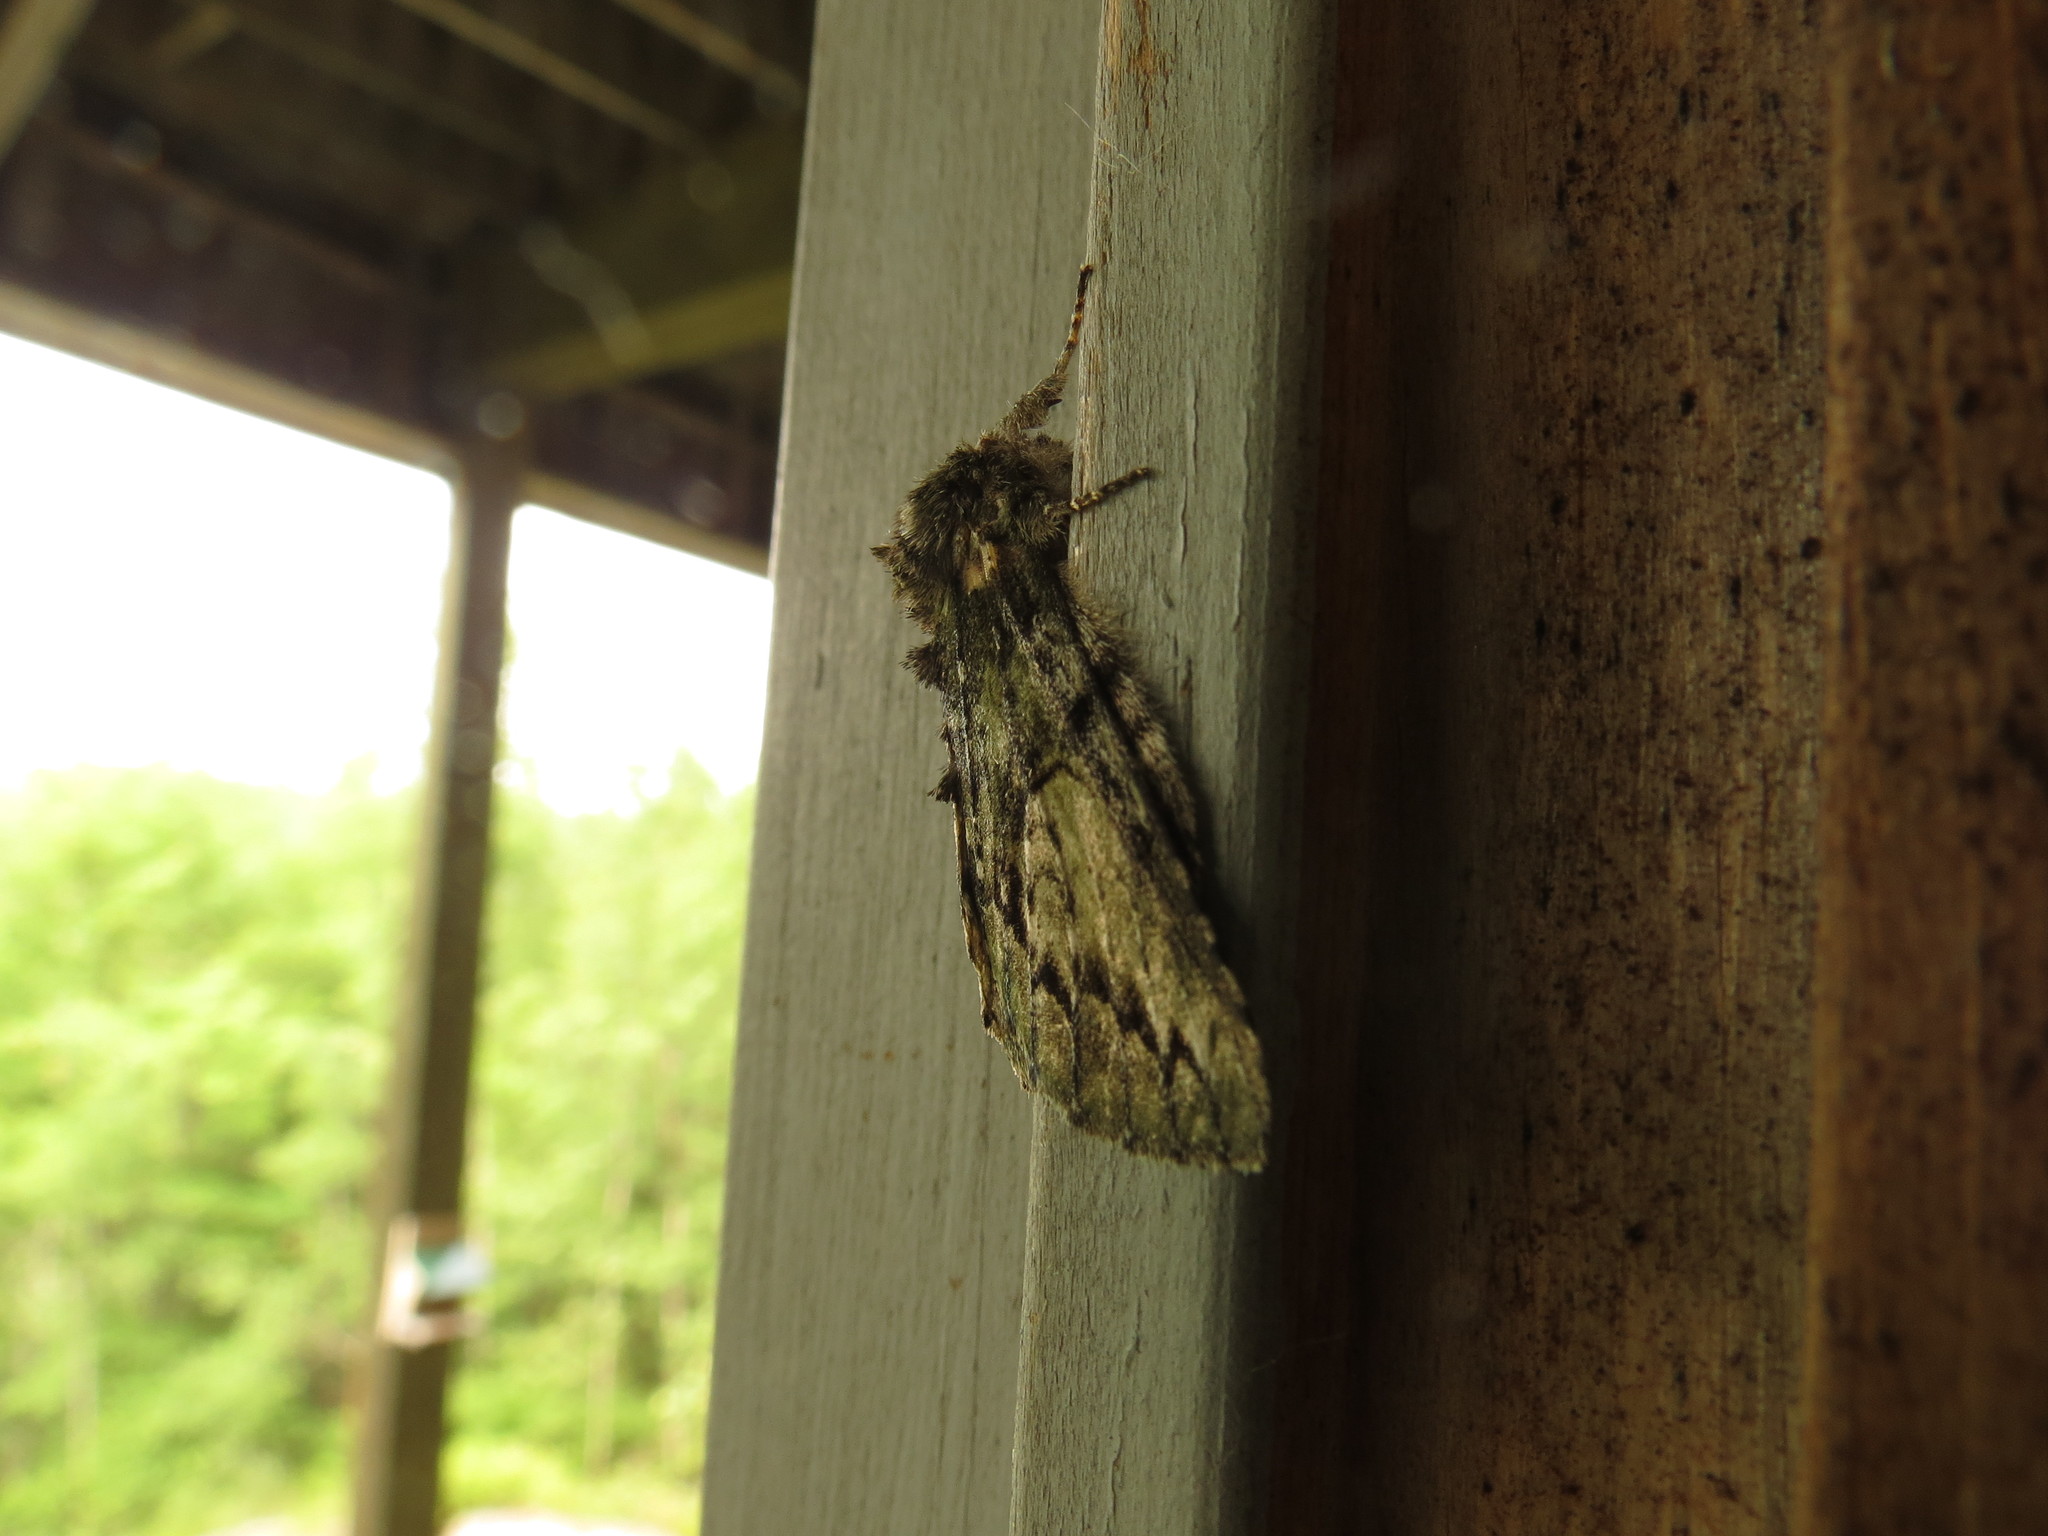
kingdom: Animalia
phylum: Arthropoda
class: Insecta
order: Lepidoptera
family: Notodontidae
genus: Heterocampa
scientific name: Heterocampa
